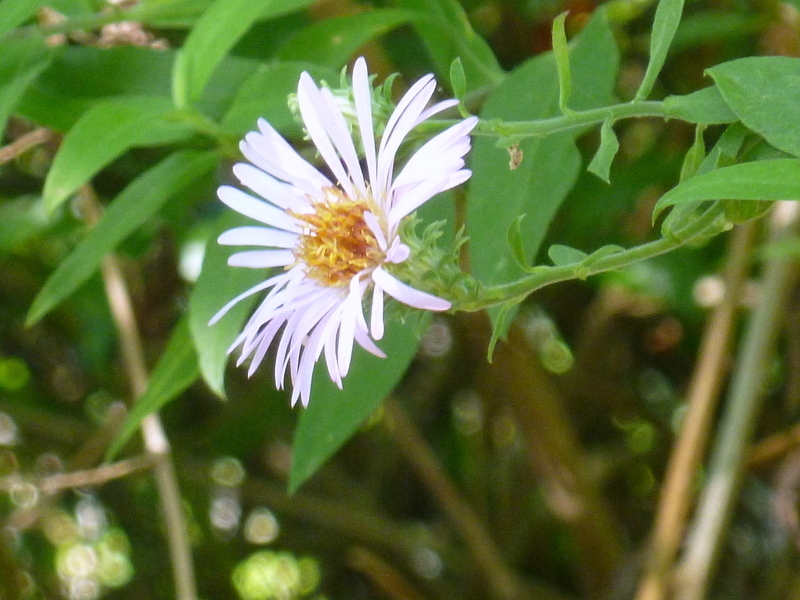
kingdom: Plantae
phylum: Tracheophyta
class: Magnoliopsida
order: Asterales
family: Asteraceae
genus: Ampelaster
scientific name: Ampelaster carolinianus
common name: Climbing aster
